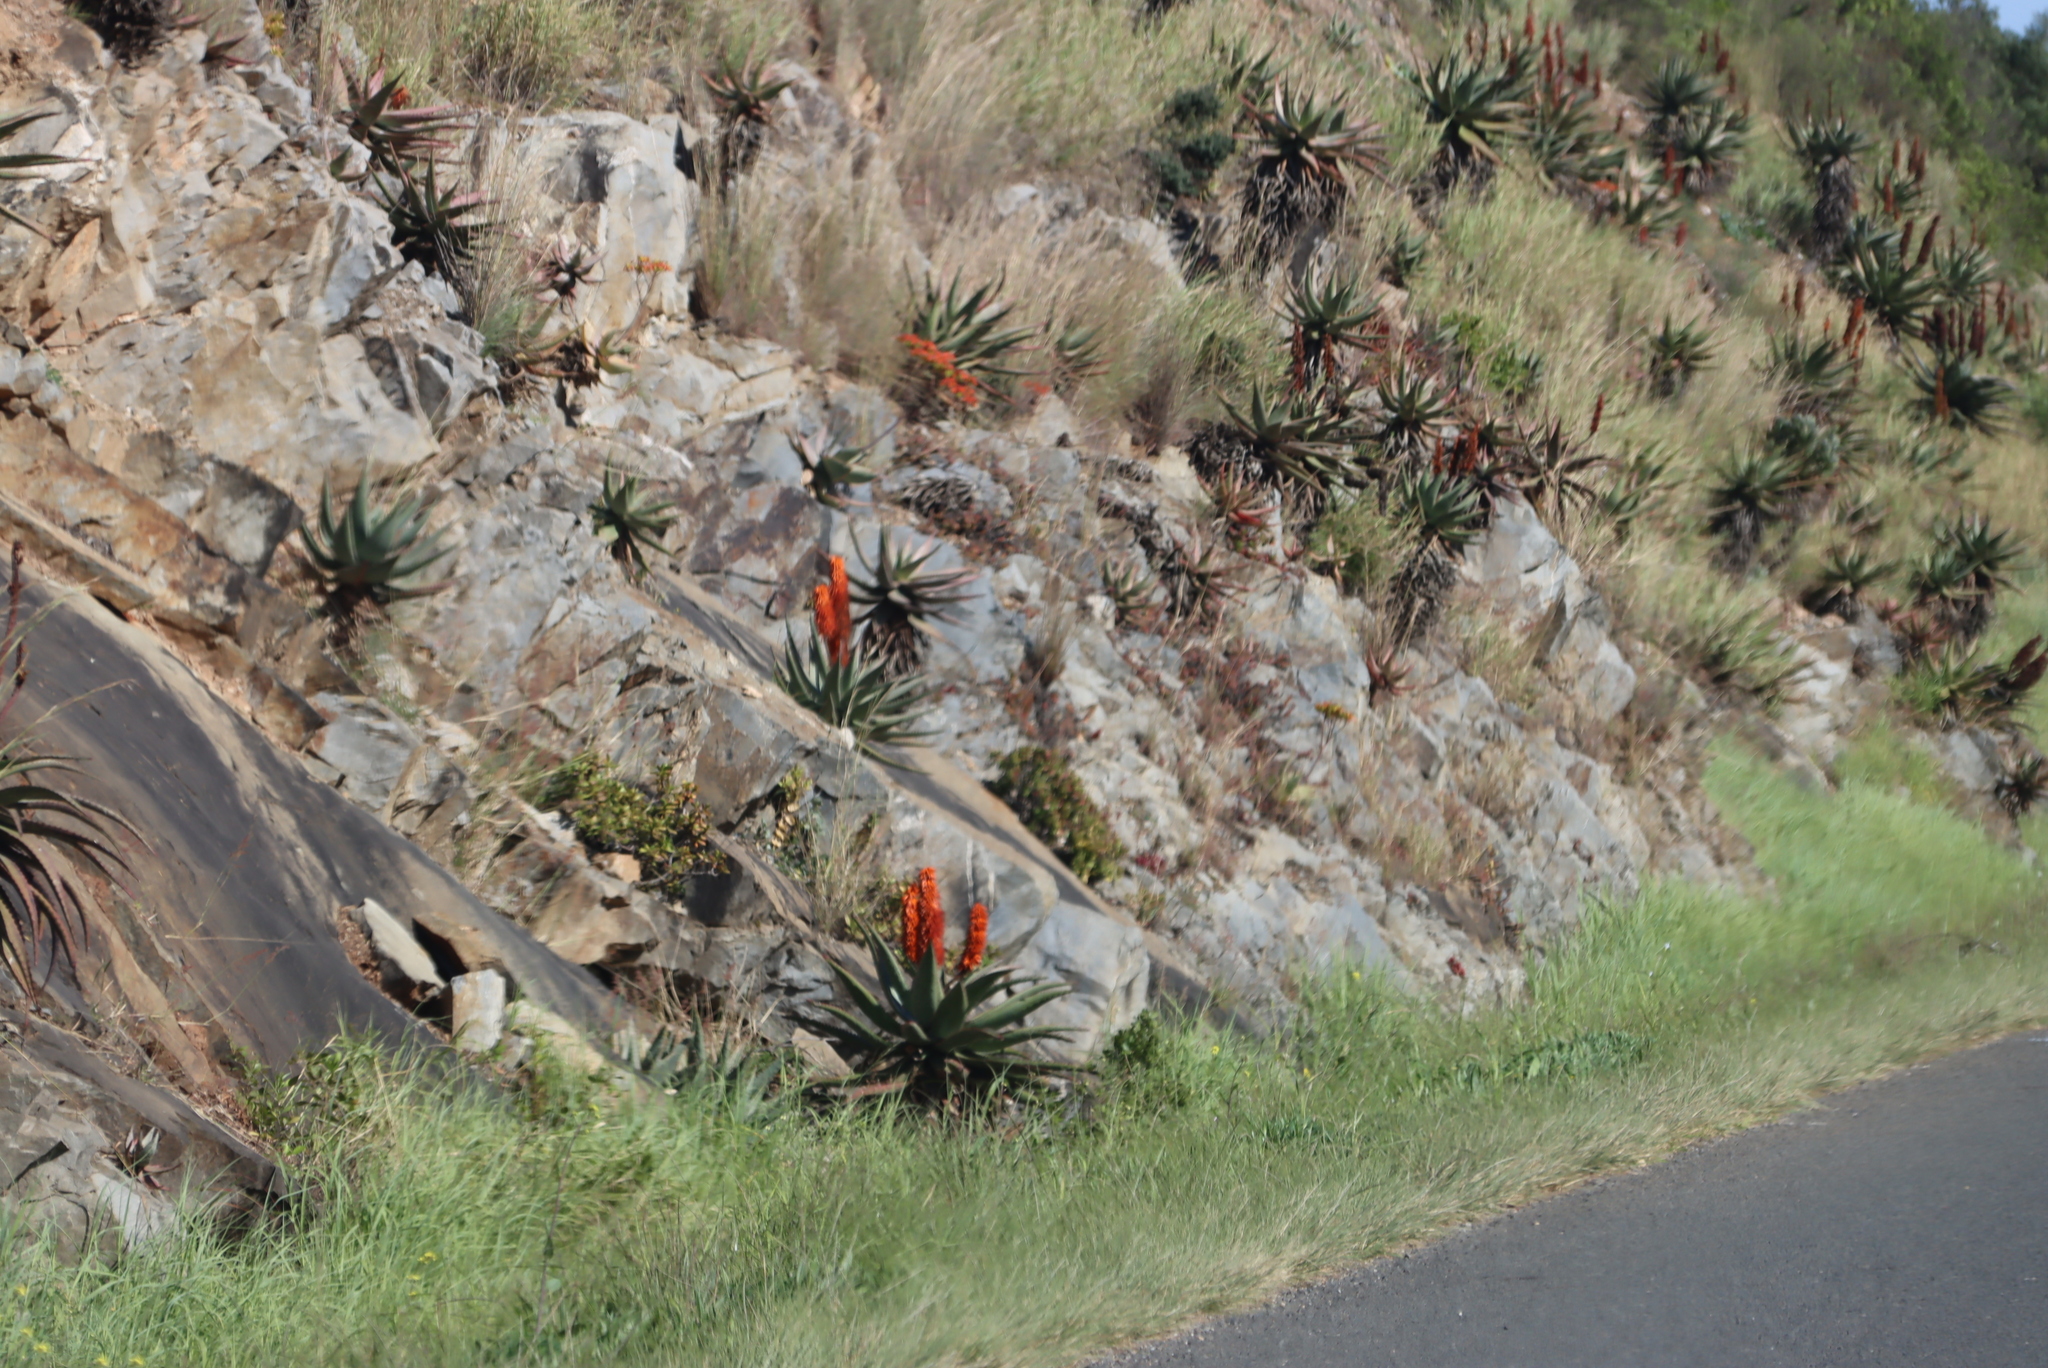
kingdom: Plantae
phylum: Tracheophyta
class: Liliopsida
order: Asparagales
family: Asphodelaceae
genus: Aloe
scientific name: Aloe ferox
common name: Bitter aloe
